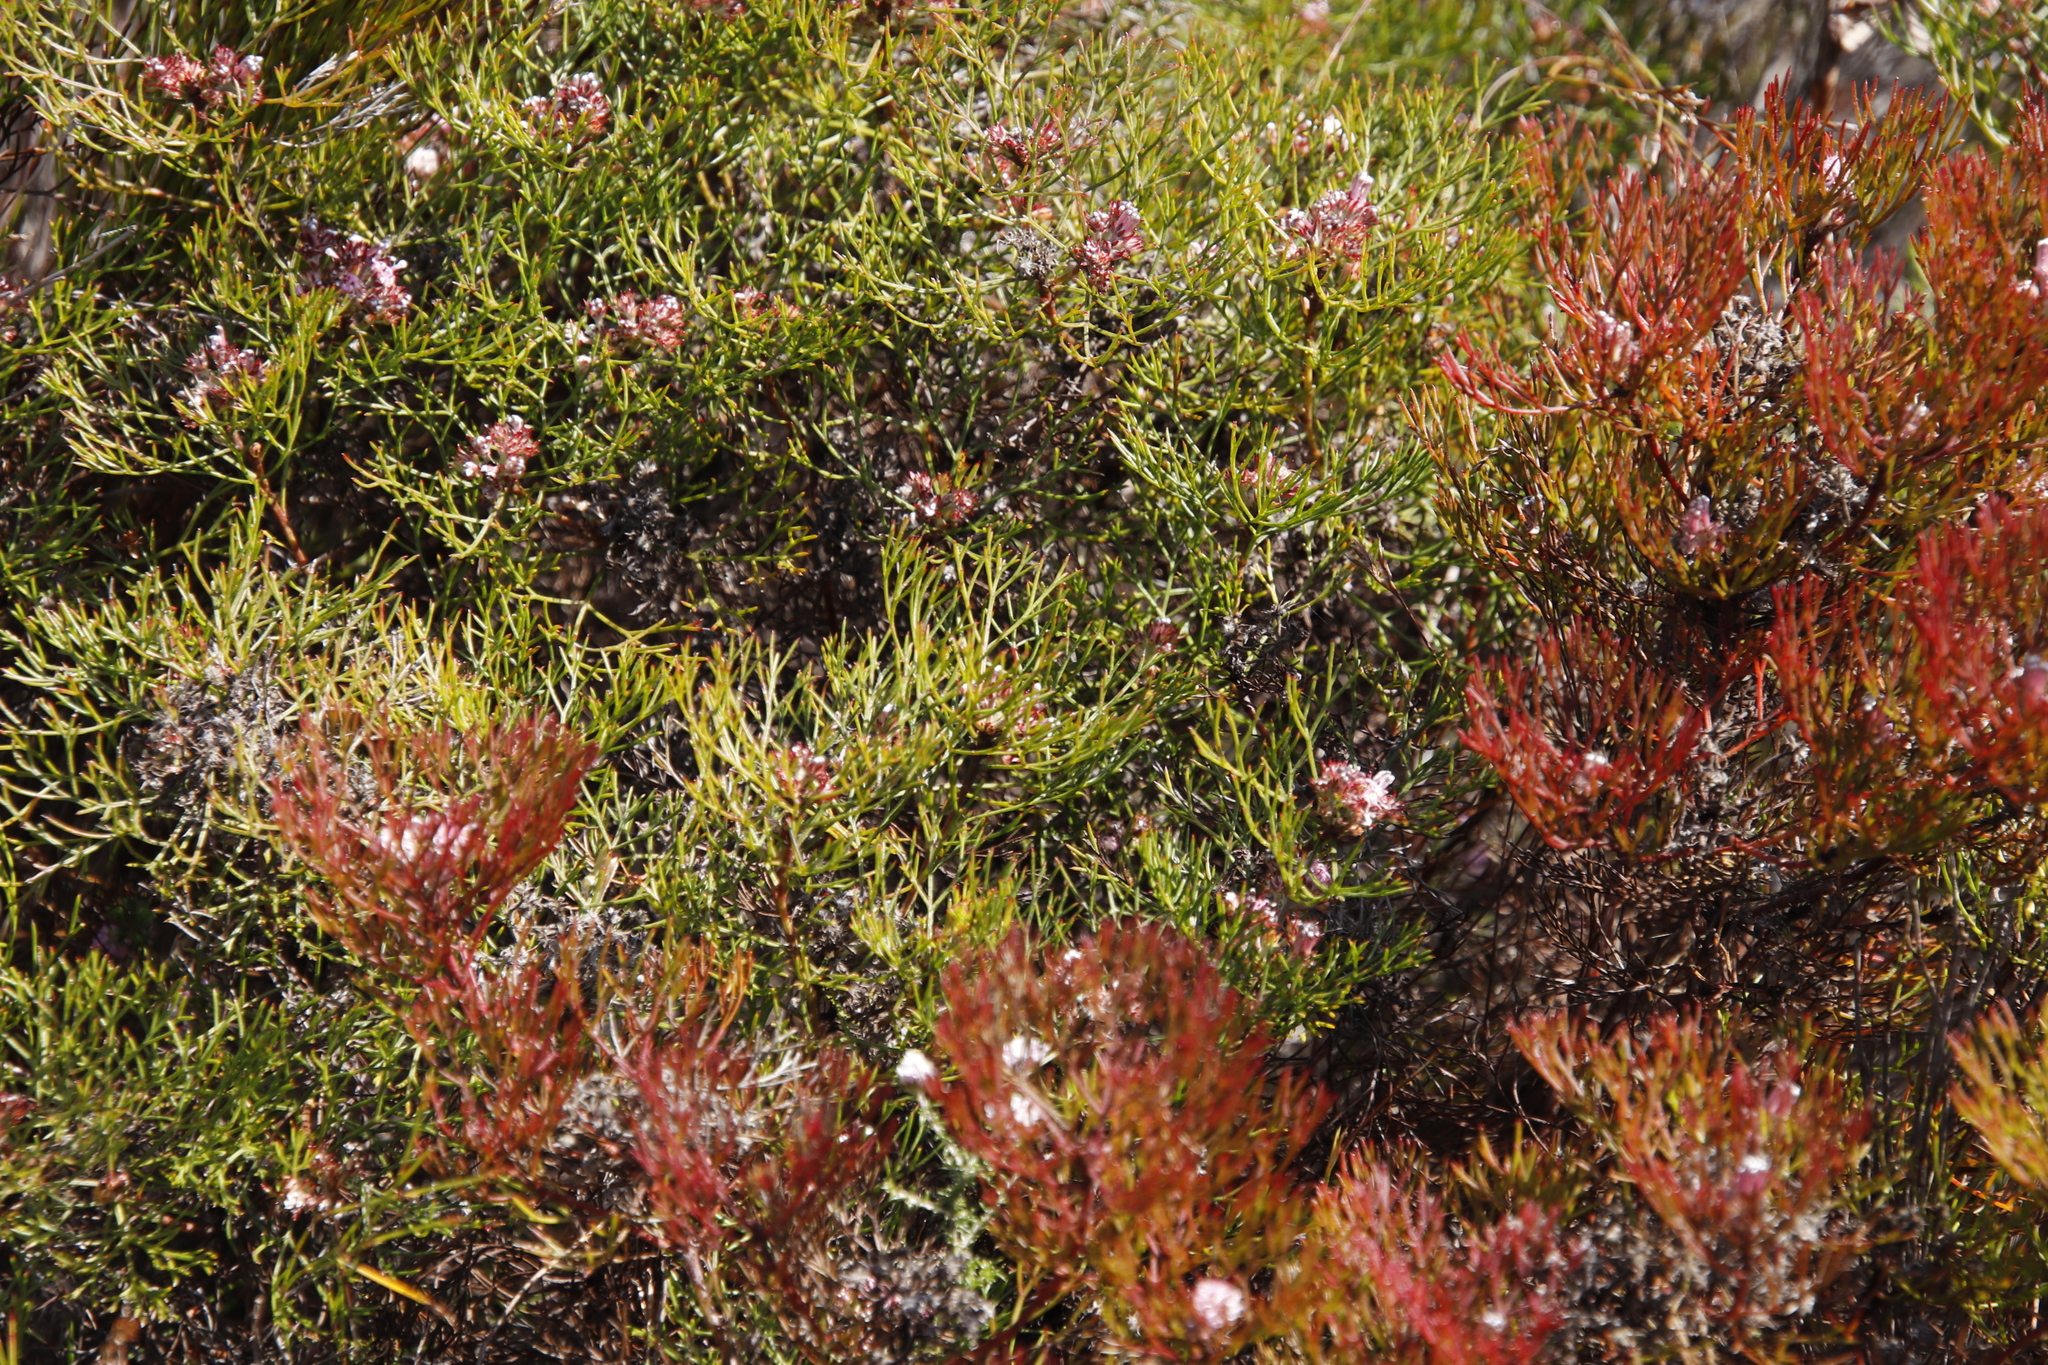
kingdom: Plantae
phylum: Tracheophyta
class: Magnoliopsida
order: Proteales
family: Proteaceae
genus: Serruria
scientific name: Serruria fasciflora
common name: Common pin spiderhead
